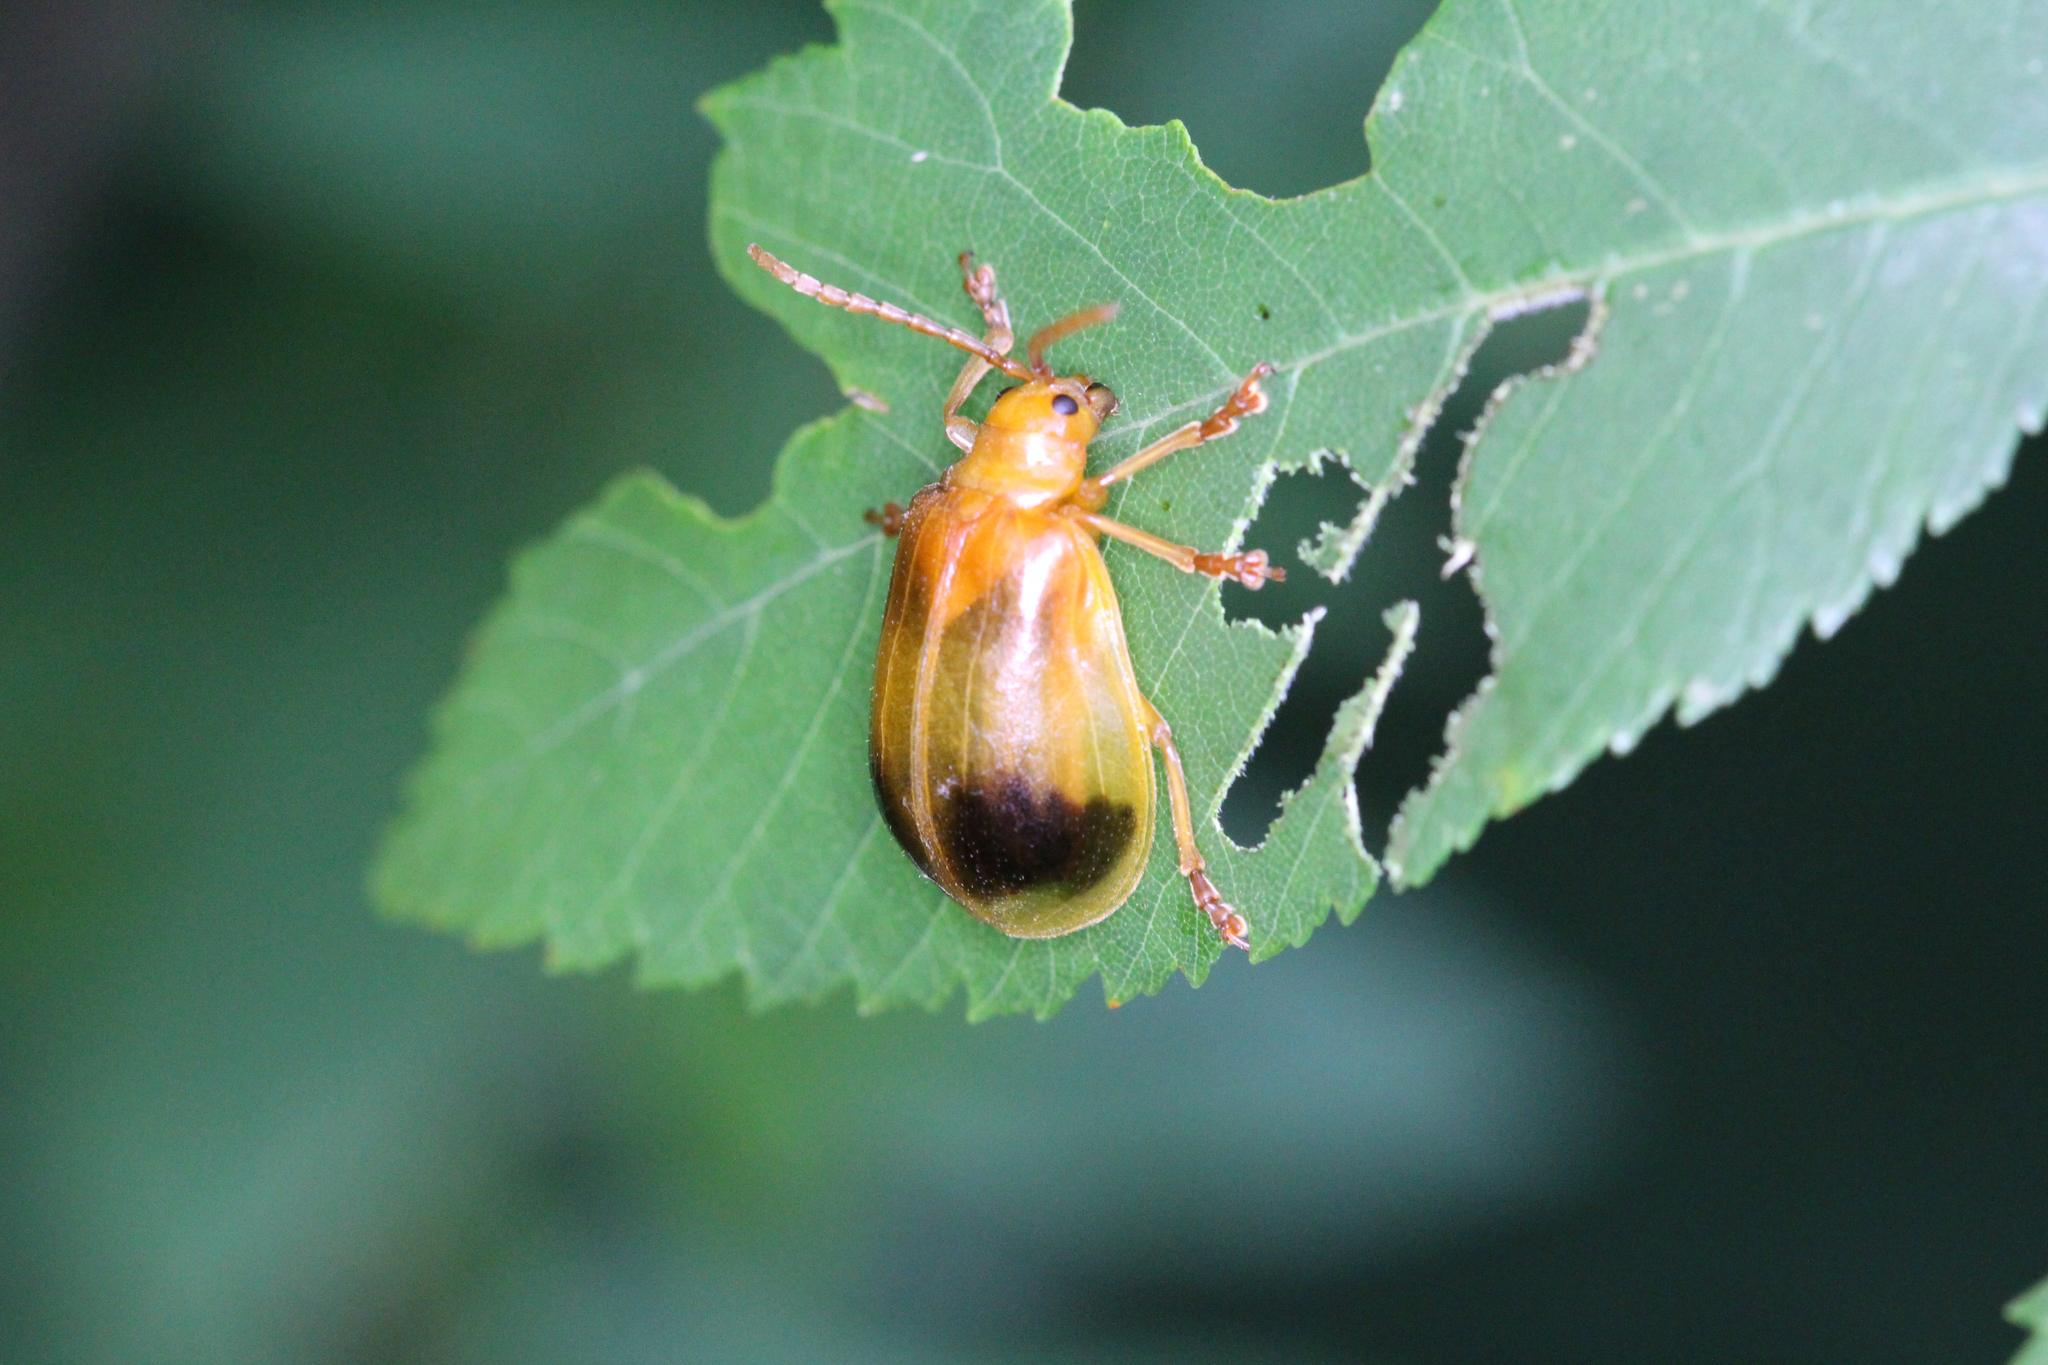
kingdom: Animalia
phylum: Arthropoda
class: Insecta
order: Coleoptera
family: Chrysomelidae
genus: Monocesta
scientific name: Monocesta coryli
